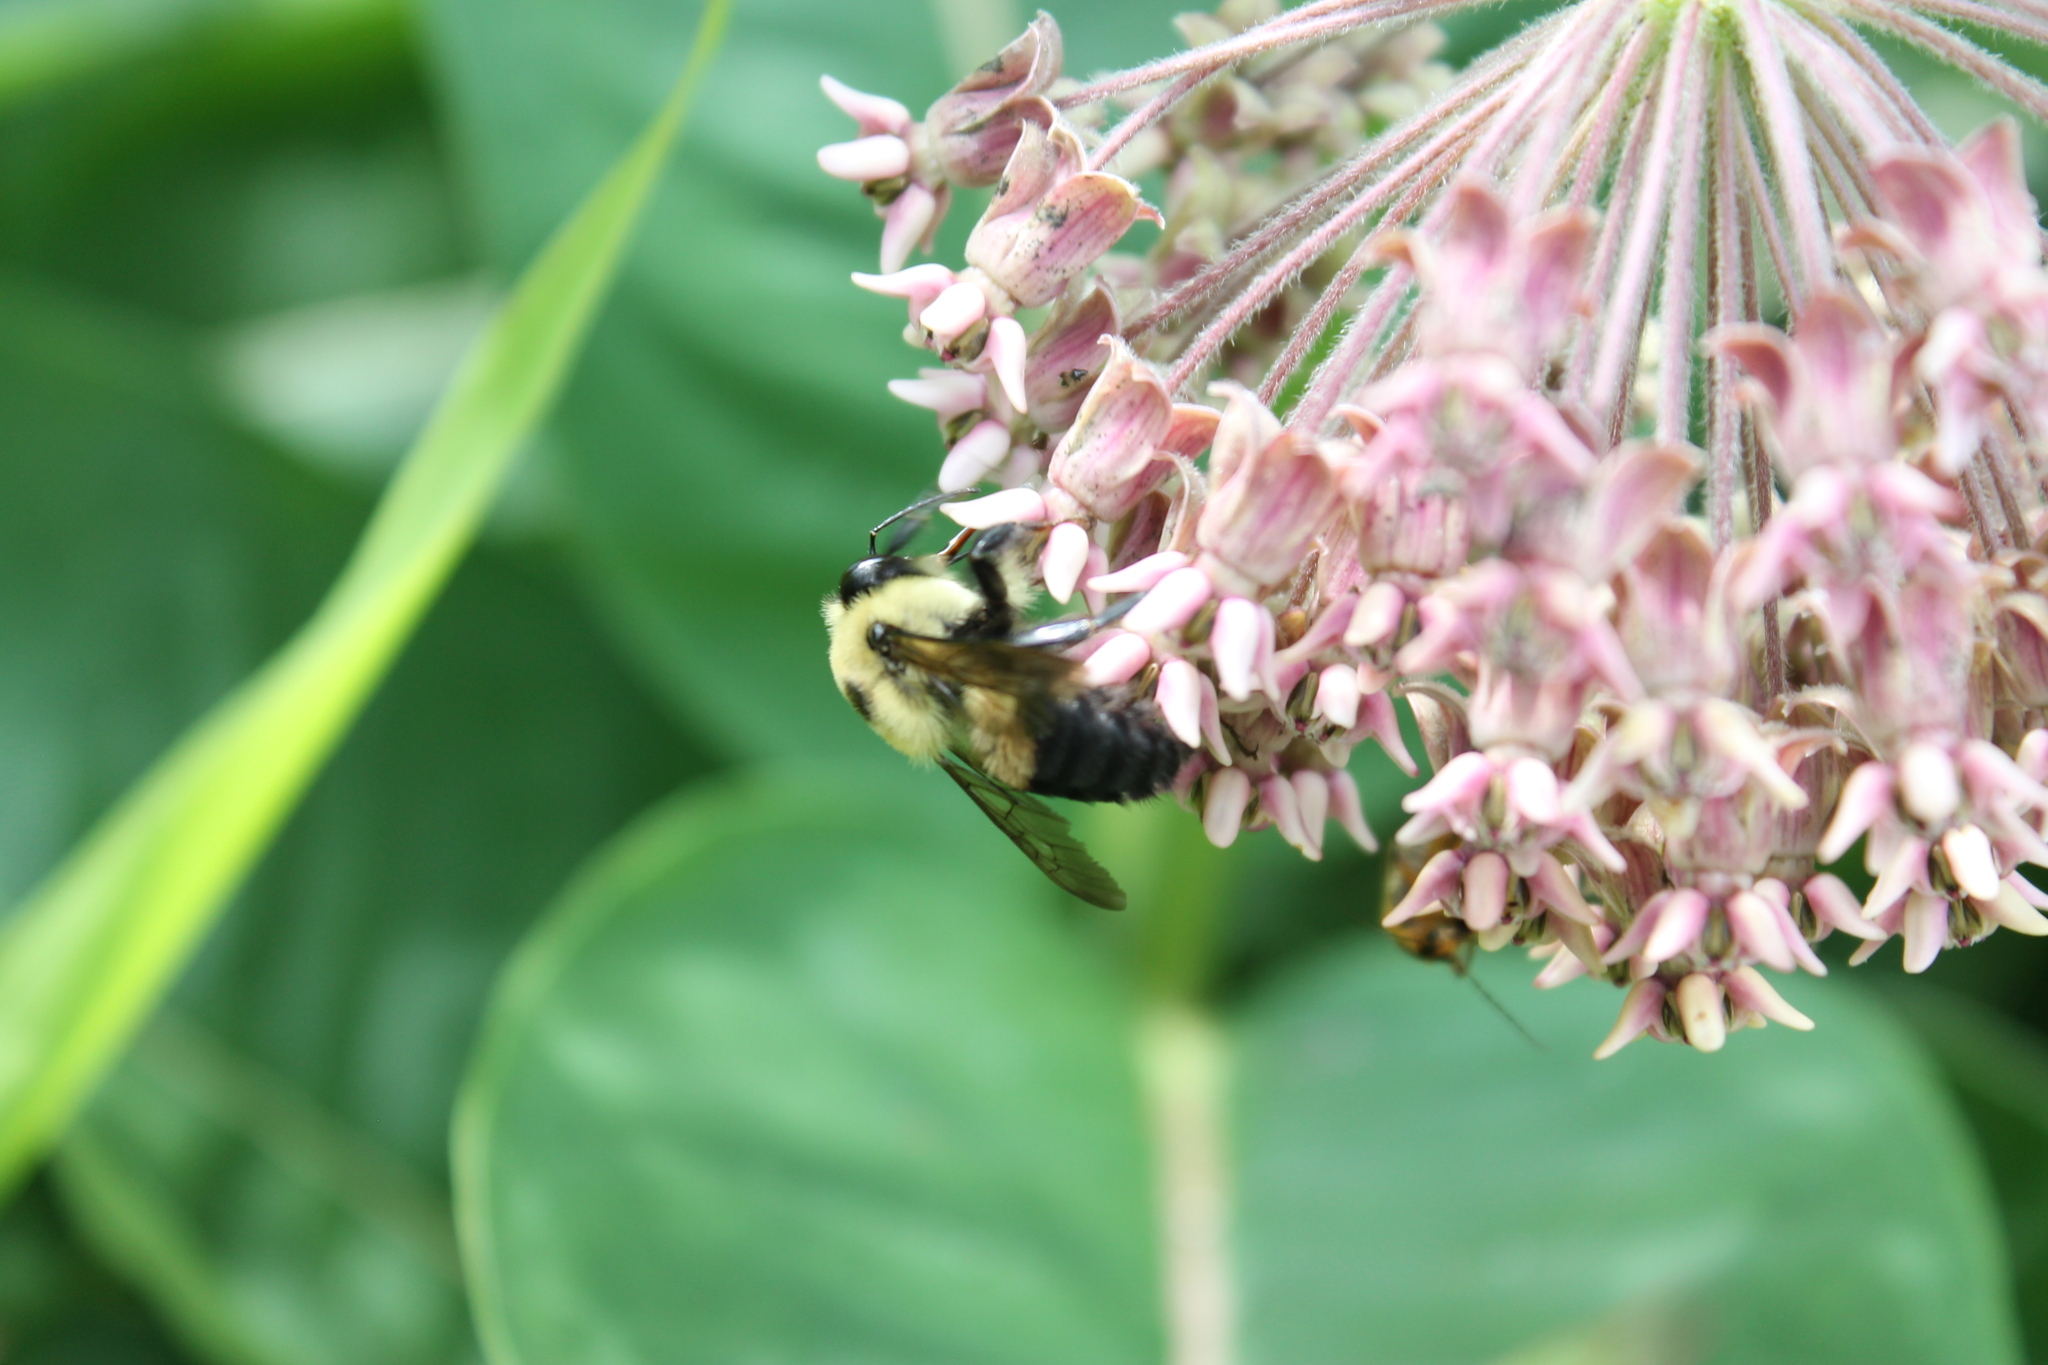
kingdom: Animalia
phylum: Arthropoda
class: Insecta
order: Hymenoptera
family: Apidae
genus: Bombus
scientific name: Bombus griseocollis
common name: Brown-belted bumble bee
